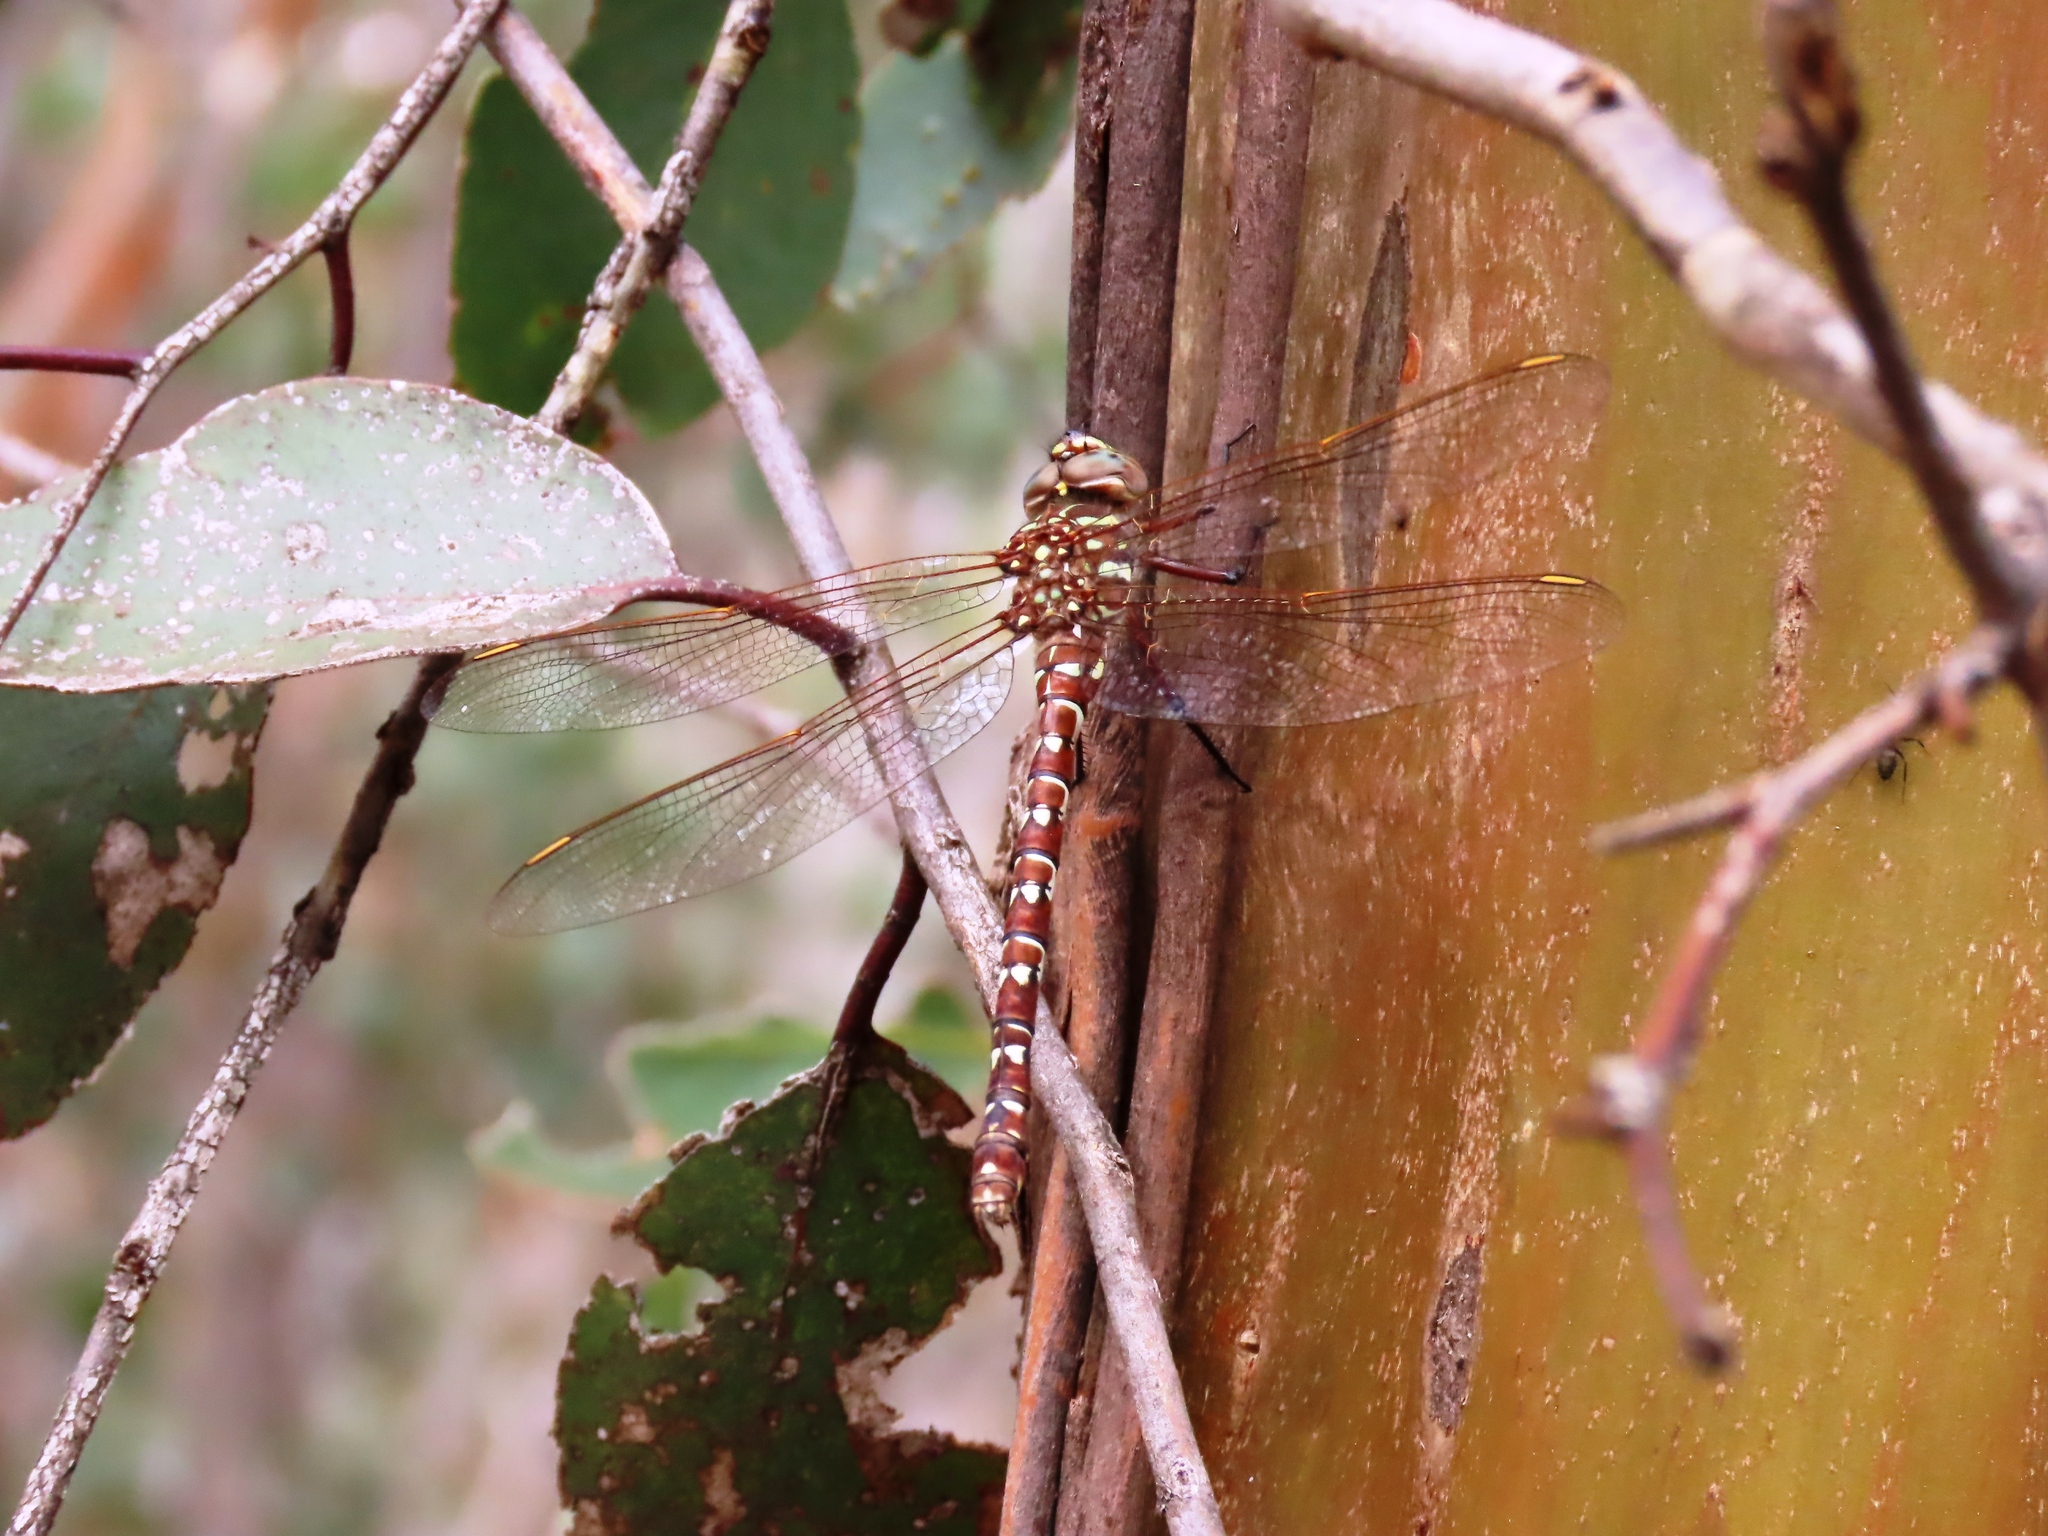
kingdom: Animalia
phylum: Arthropoda
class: Insecta
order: Odonata
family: Aeshnidae
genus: Austroaeschna
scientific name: Austroaeschna unicornis
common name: Unicorn darner
